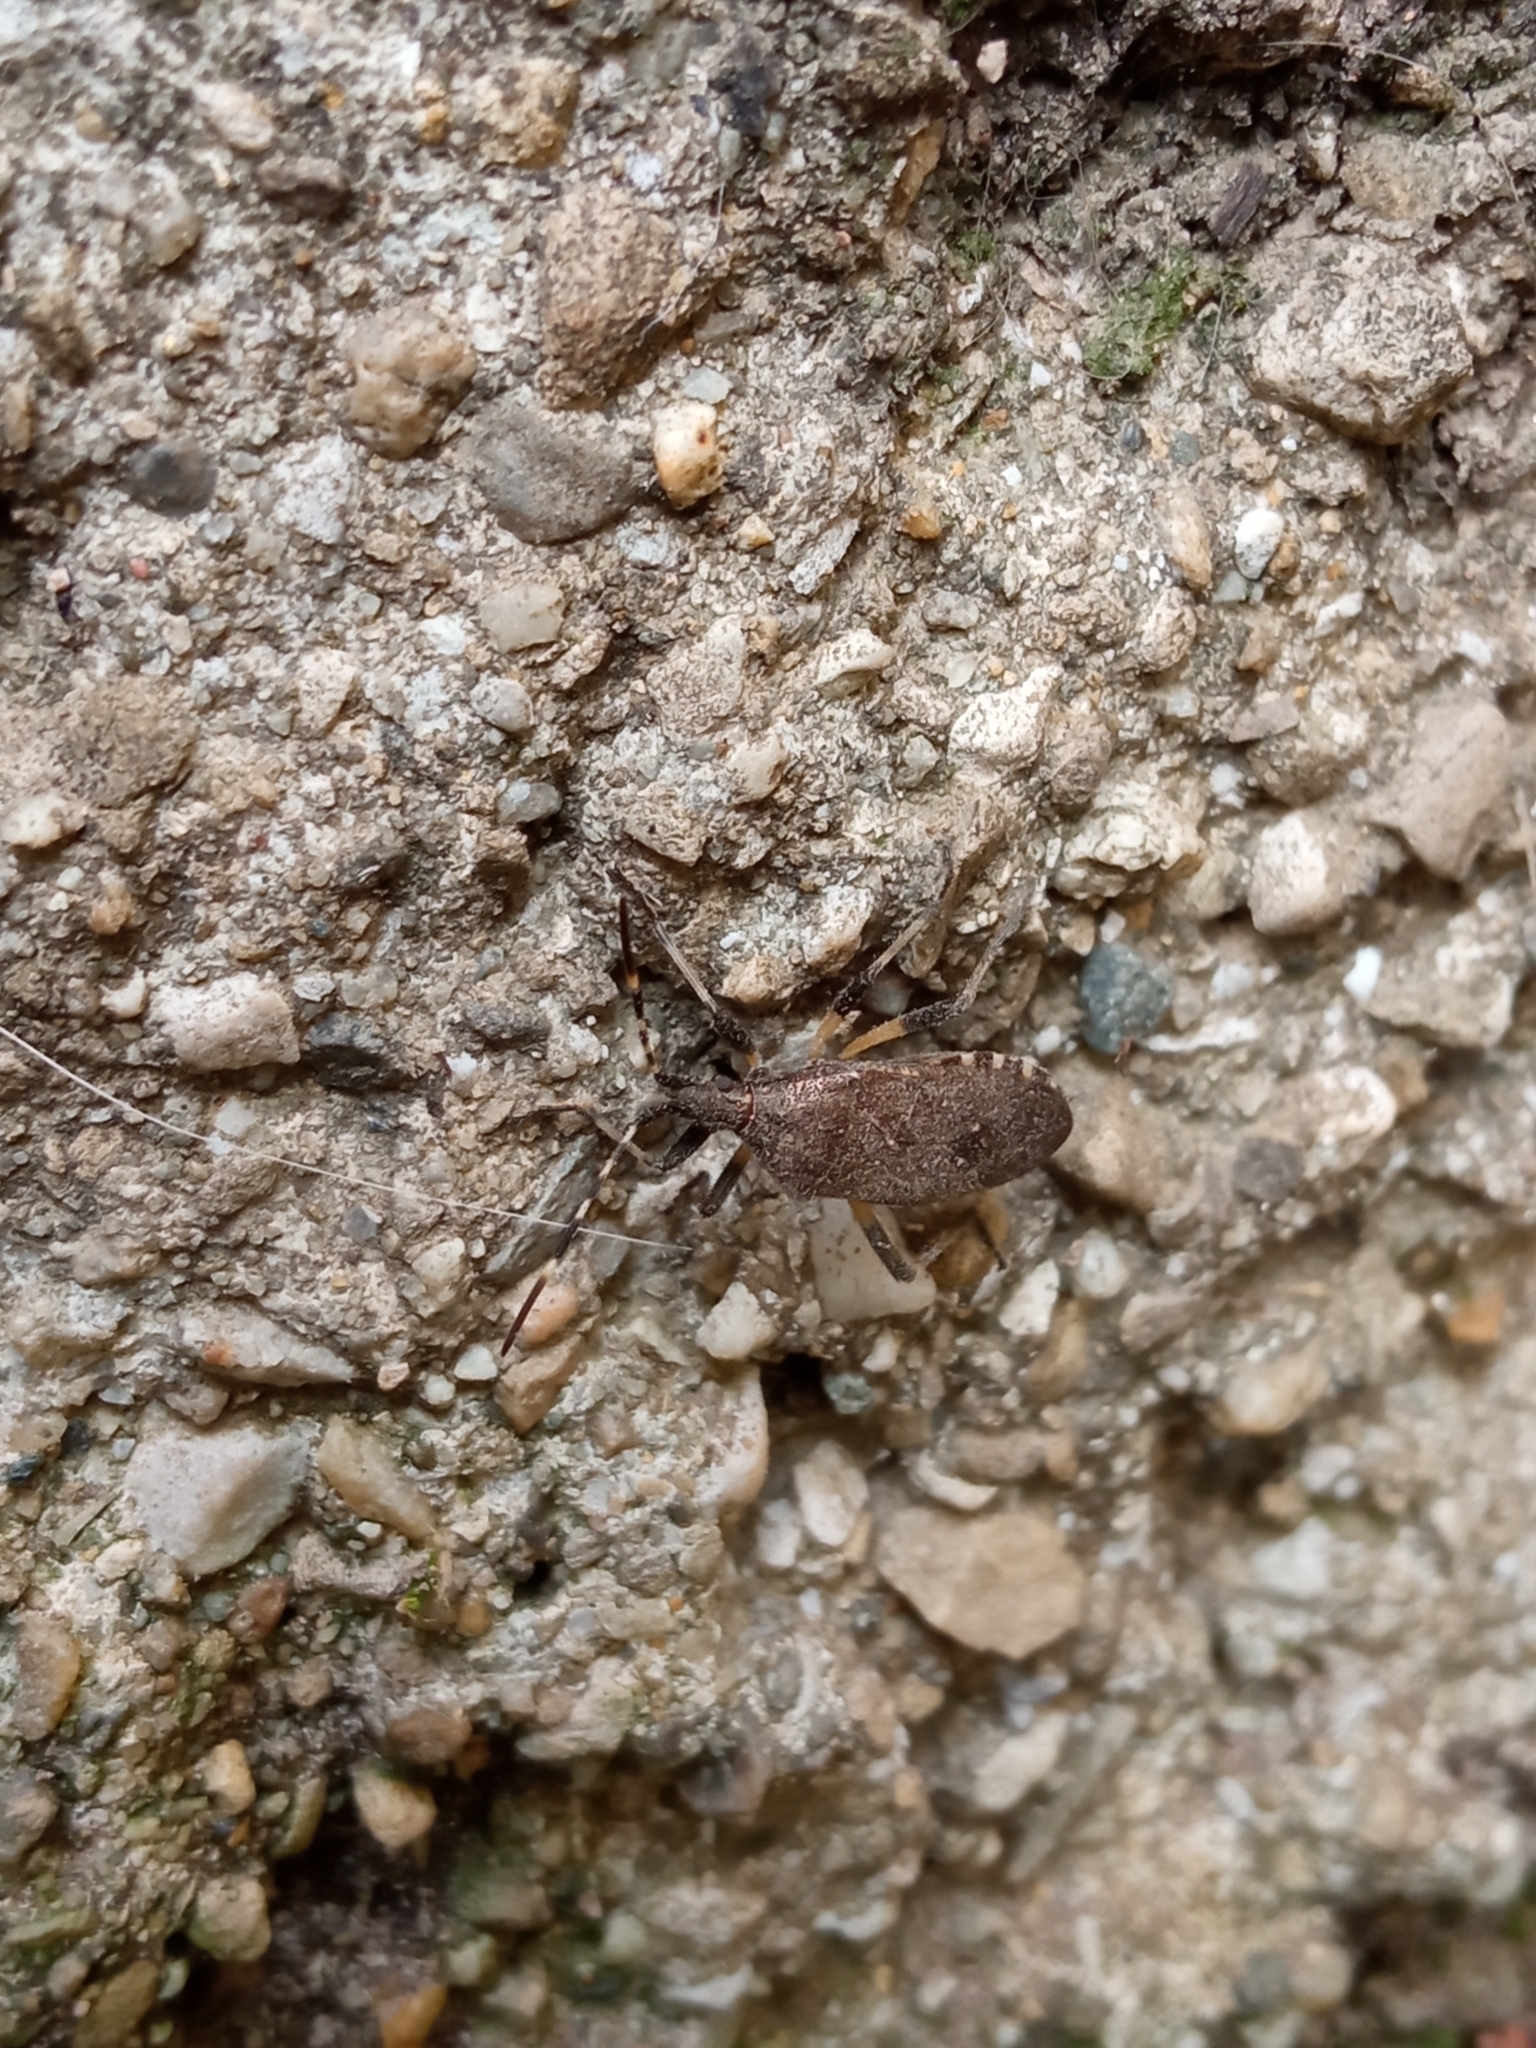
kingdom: Animalia
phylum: Arthropoda
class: Insecta
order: Hemiptera
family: Stenocephalidae
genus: Dicranocephalus
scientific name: Dicranocephalus agilis
